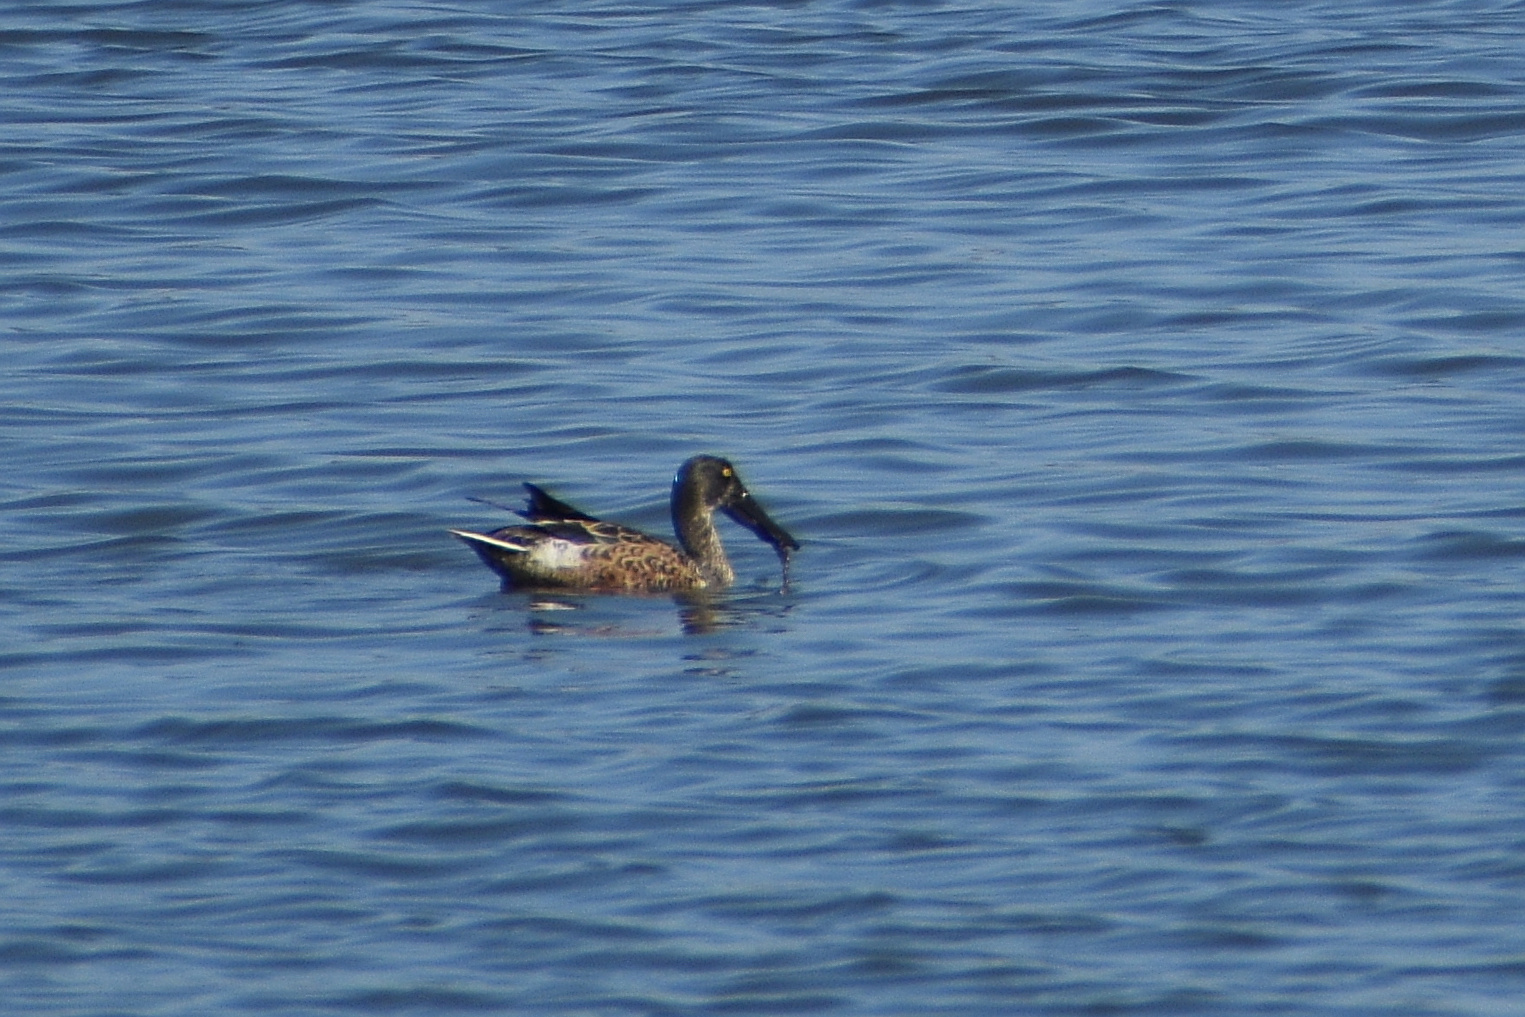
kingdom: Animalia
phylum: Chordata
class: Aves
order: Anseriformes
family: Anatidae
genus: Spatula
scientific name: Spatula clypeata
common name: Northern shoveler
